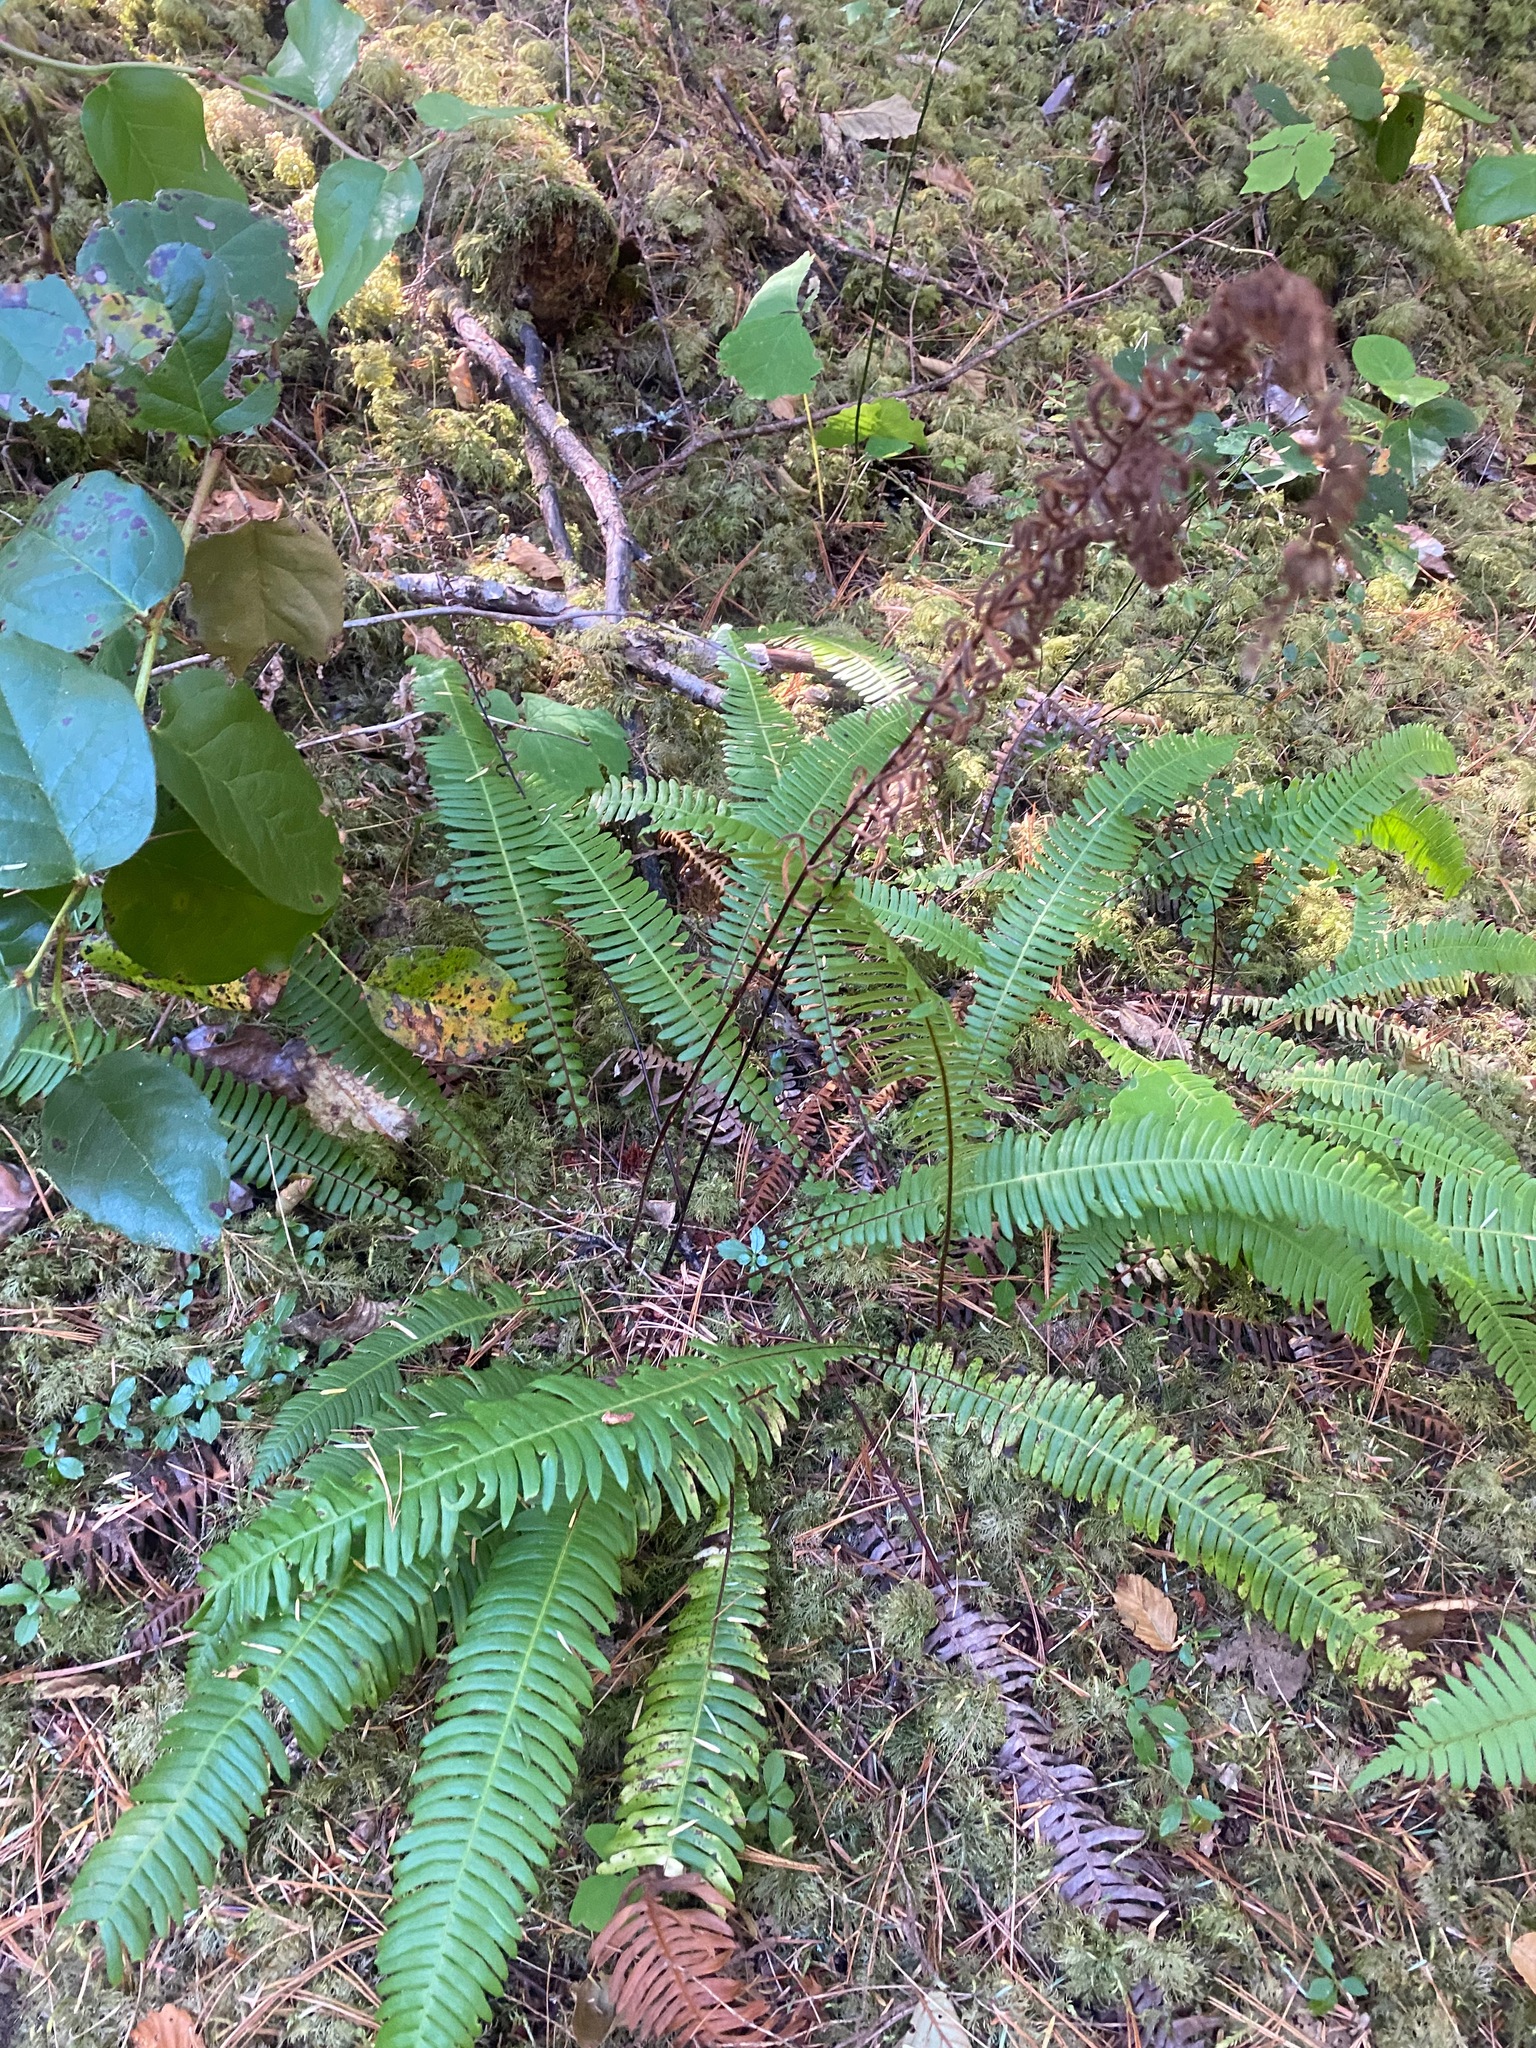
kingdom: Plantae
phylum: Tracheophyta
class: Polypodiopsida
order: Polypodiales
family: Blechnaceae
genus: Struthiopteris
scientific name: Struthiopteris spicant
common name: Deer fern
